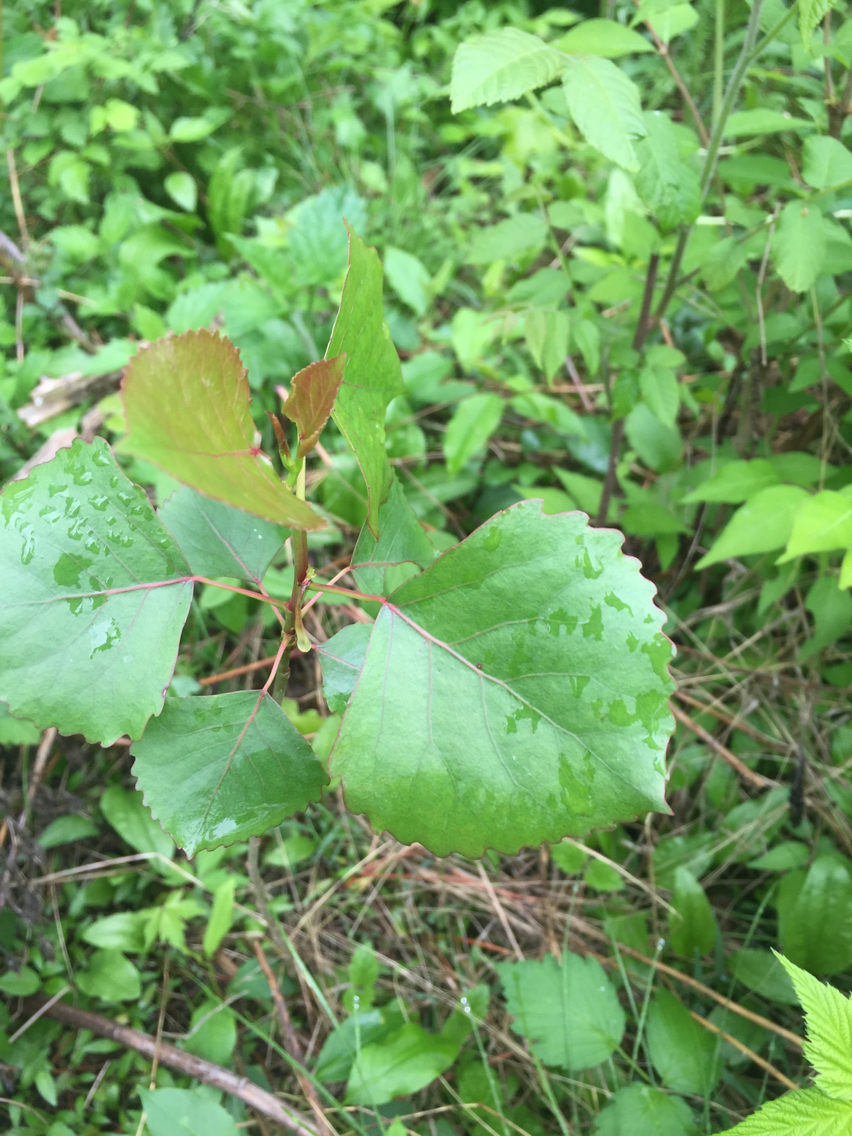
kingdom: Plantae
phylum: Tracheophyta
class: Magnoliopsida
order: Malpighiales
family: Salicaceae
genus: Populus
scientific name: Populus deltoides
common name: Eastern cottonwood
